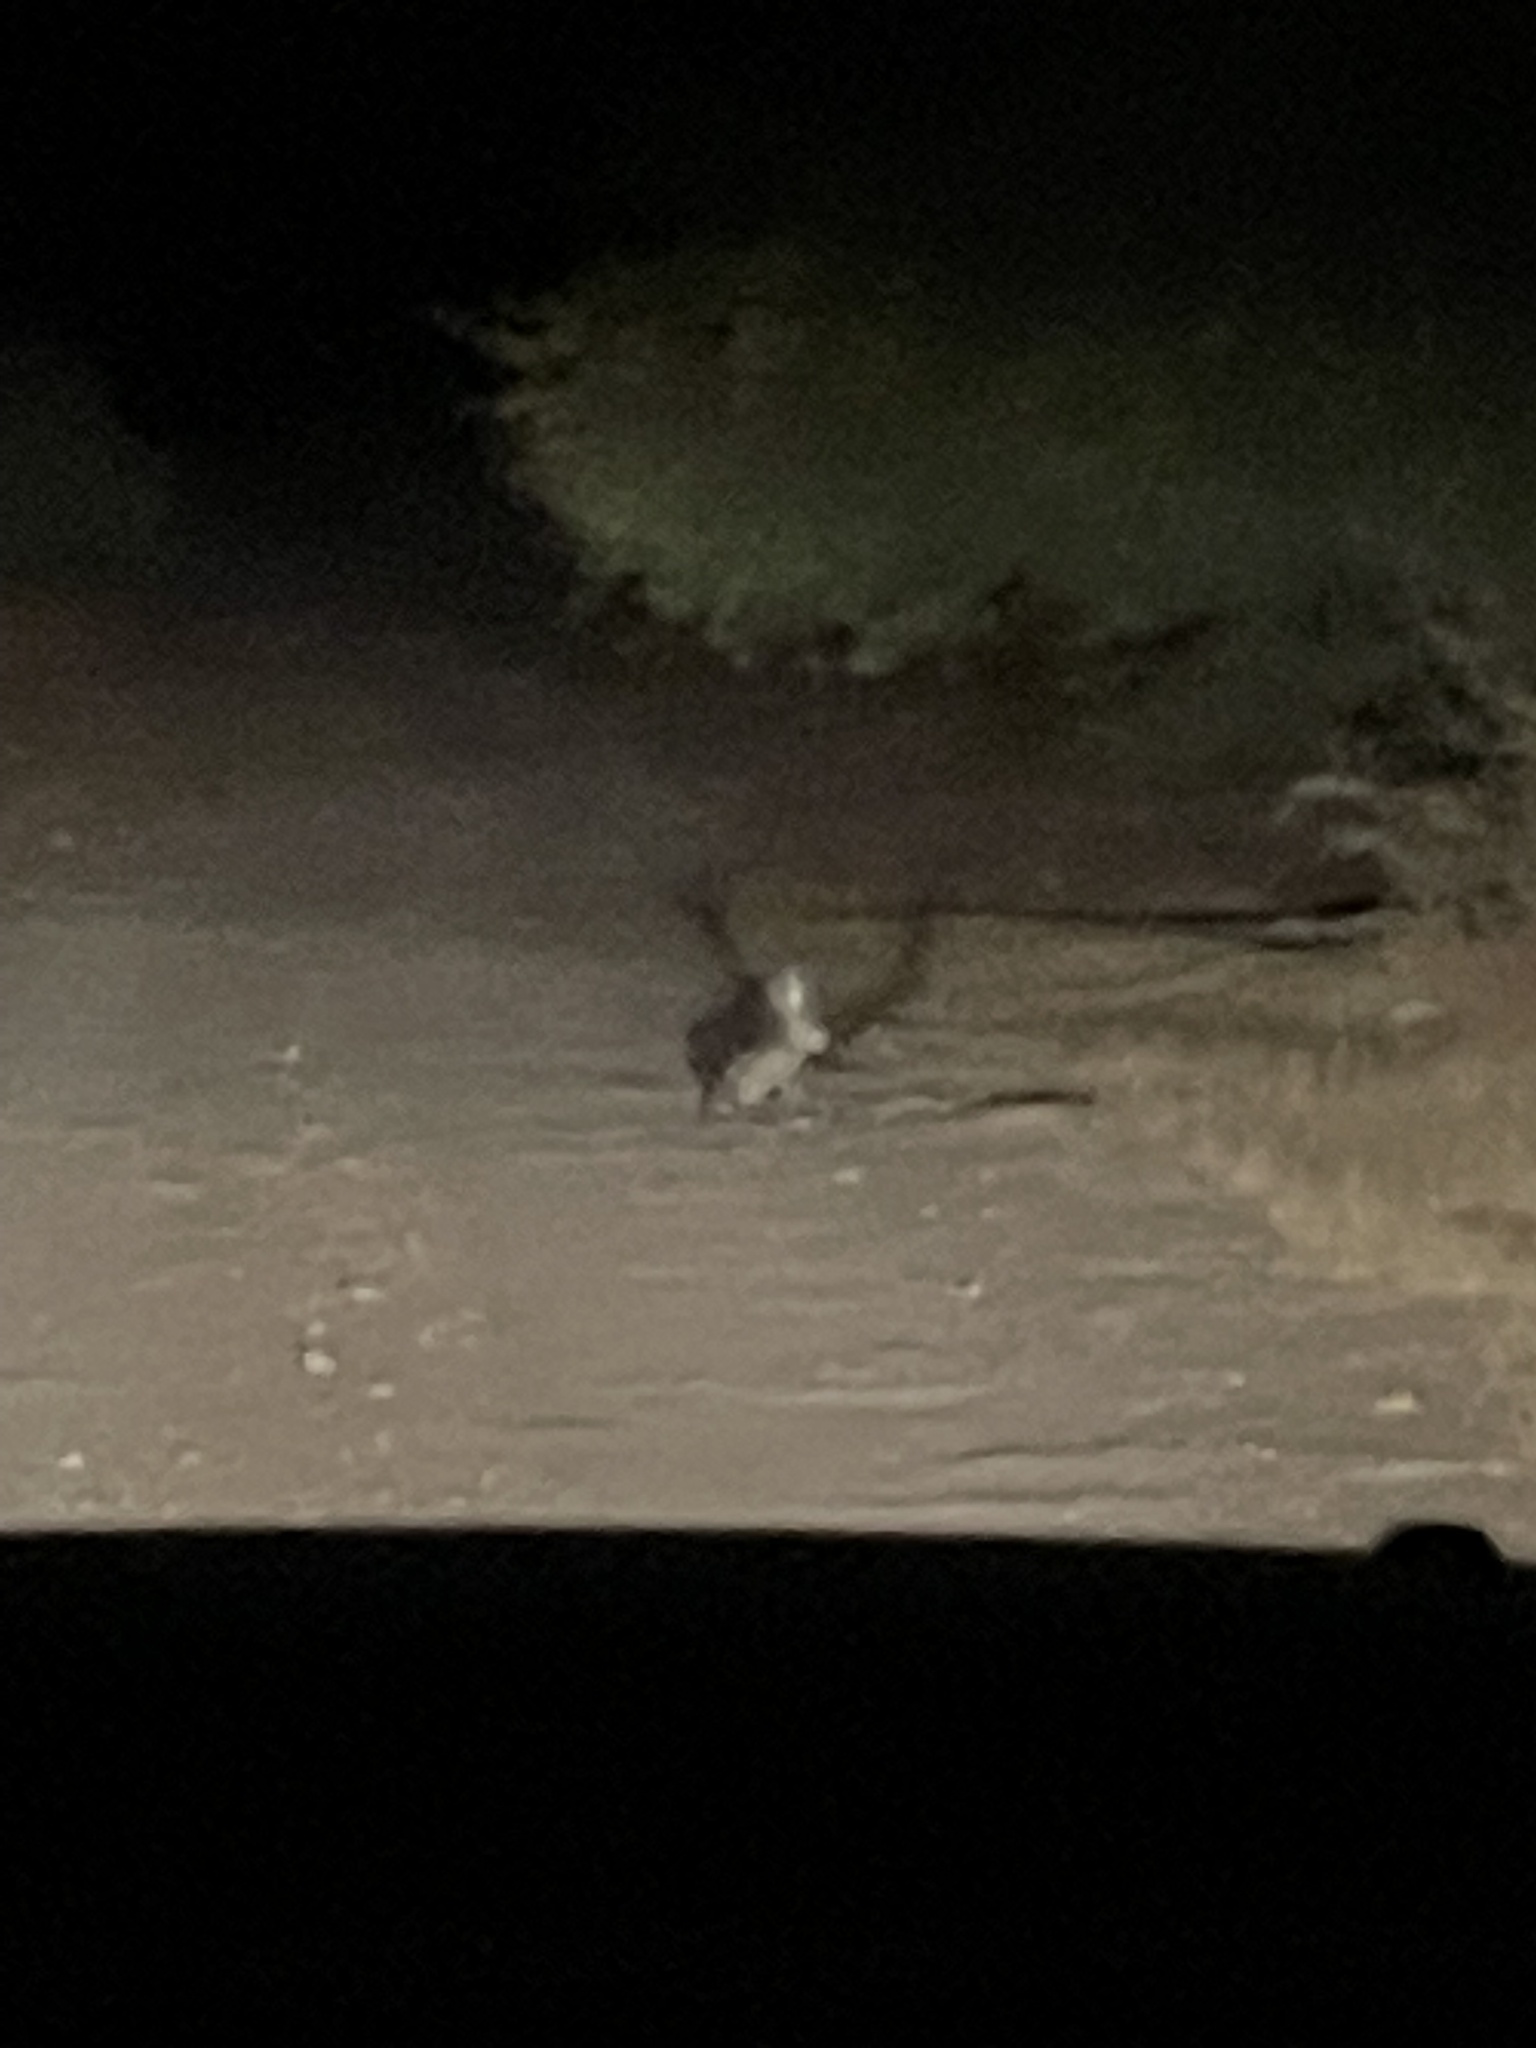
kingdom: Animalia
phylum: Chordata
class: Mammalia
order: Lagomorpha
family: Leporidae
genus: Lepus
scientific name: Lepus californicus
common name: Black-tailed jackrabbit
